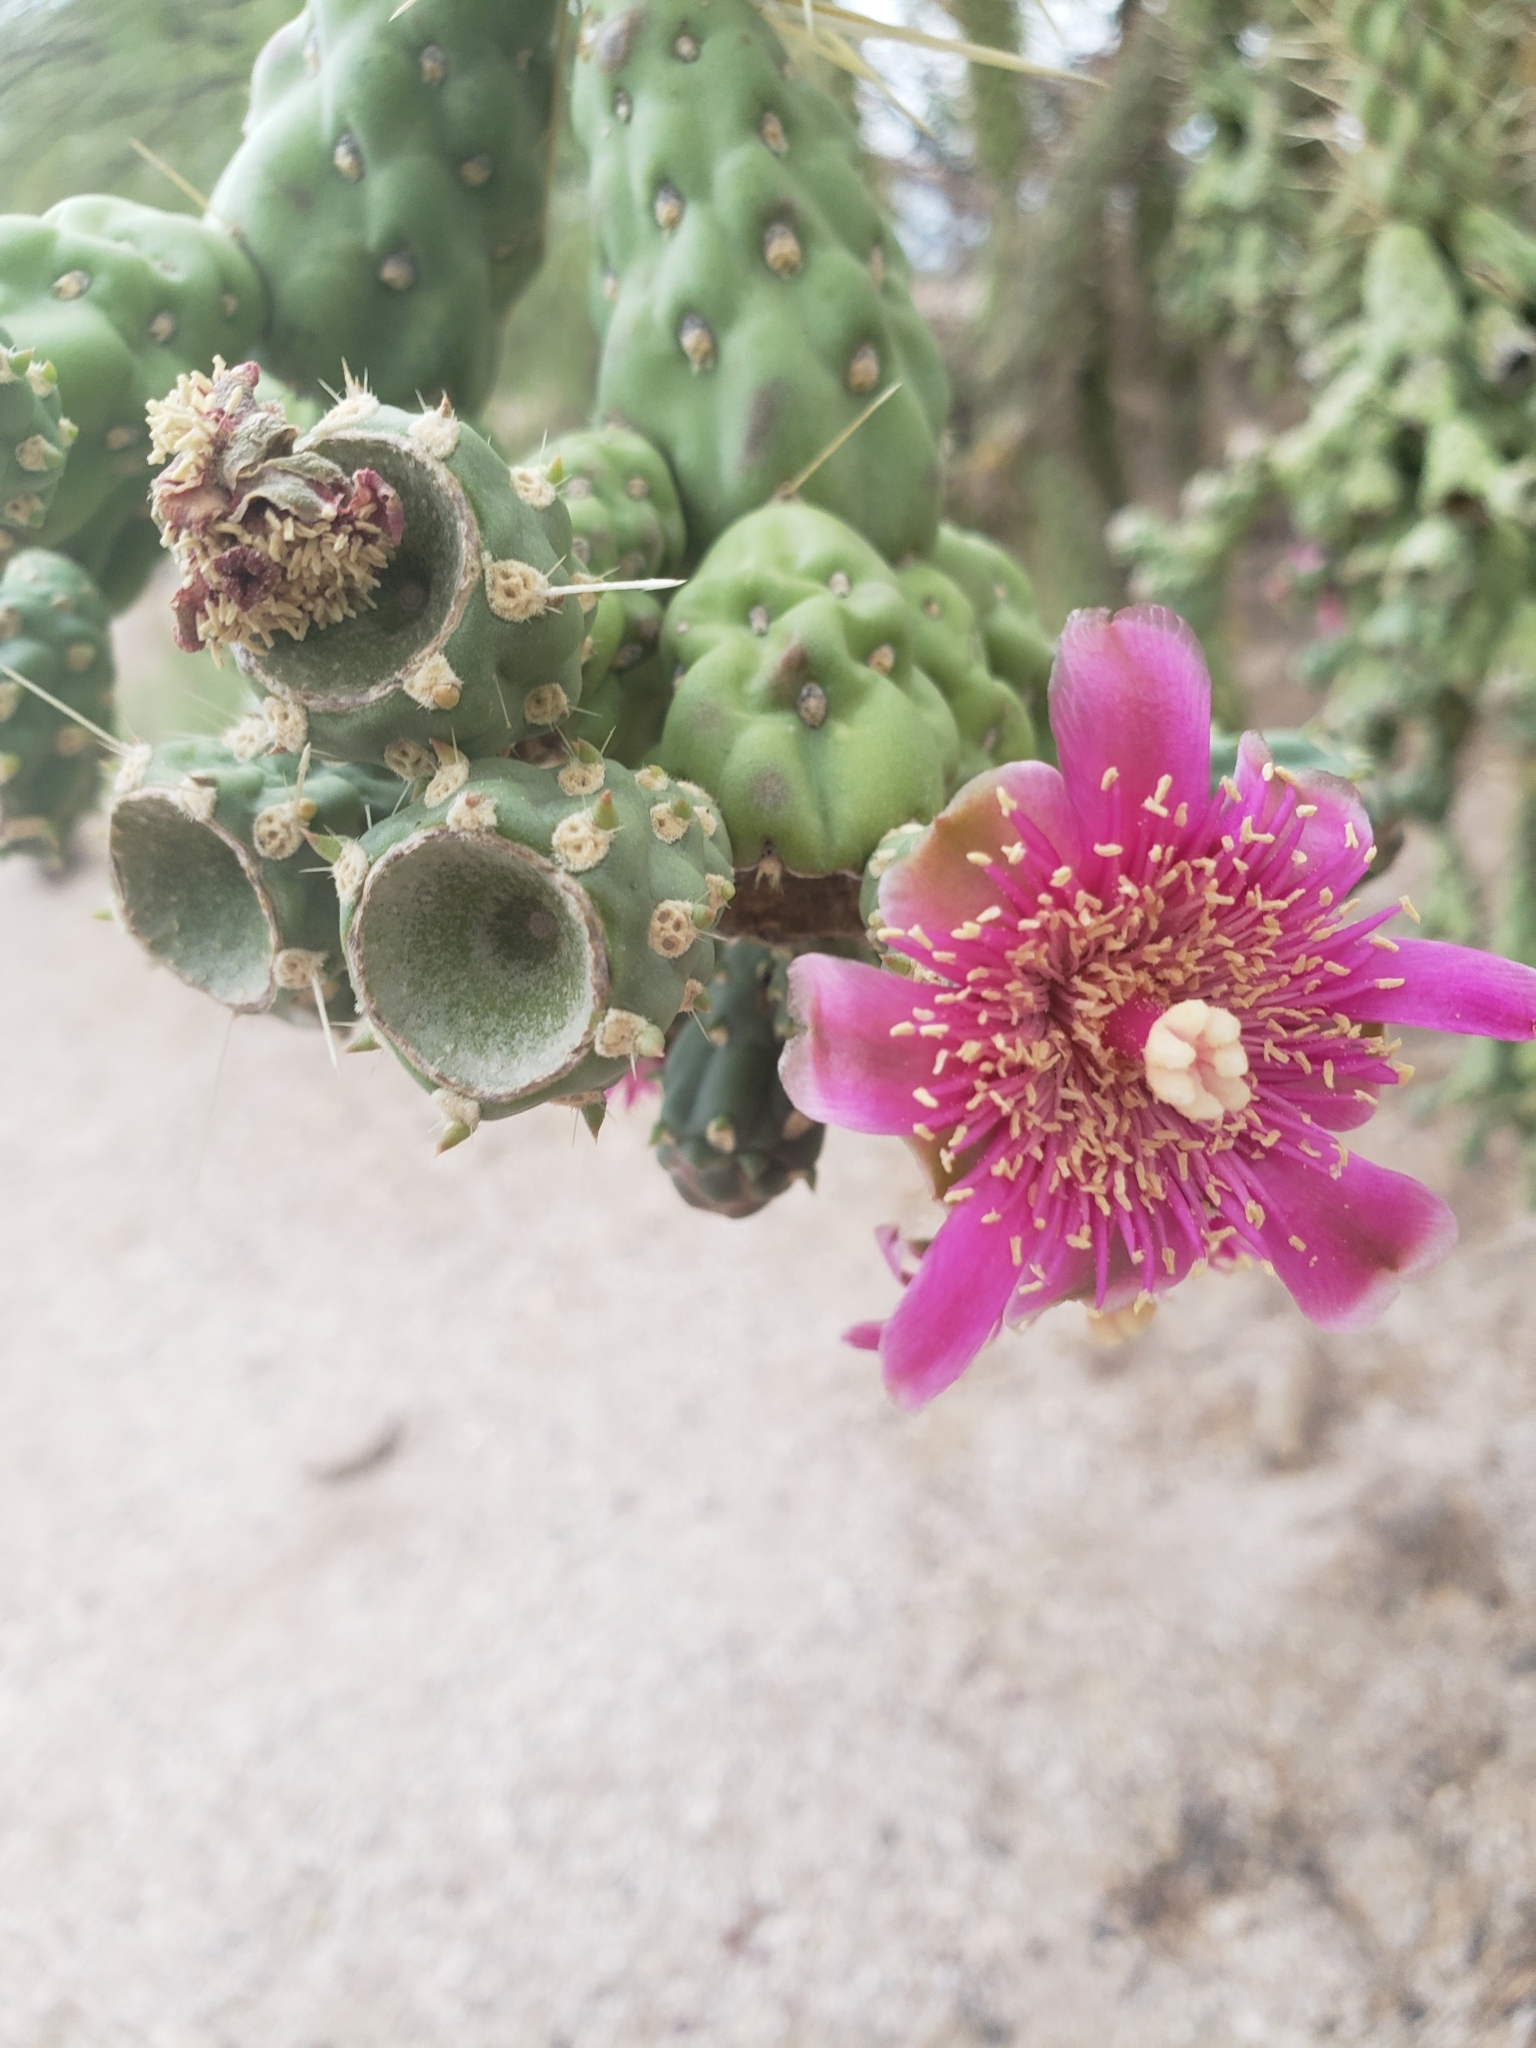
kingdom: Plantae
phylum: Tracheophyta
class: Magnoliopsida
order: Caryophyllales
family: Cactaceae
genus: Cylindropuntia
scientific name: Cylindropuntia fulgida
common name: Jumping cholla
